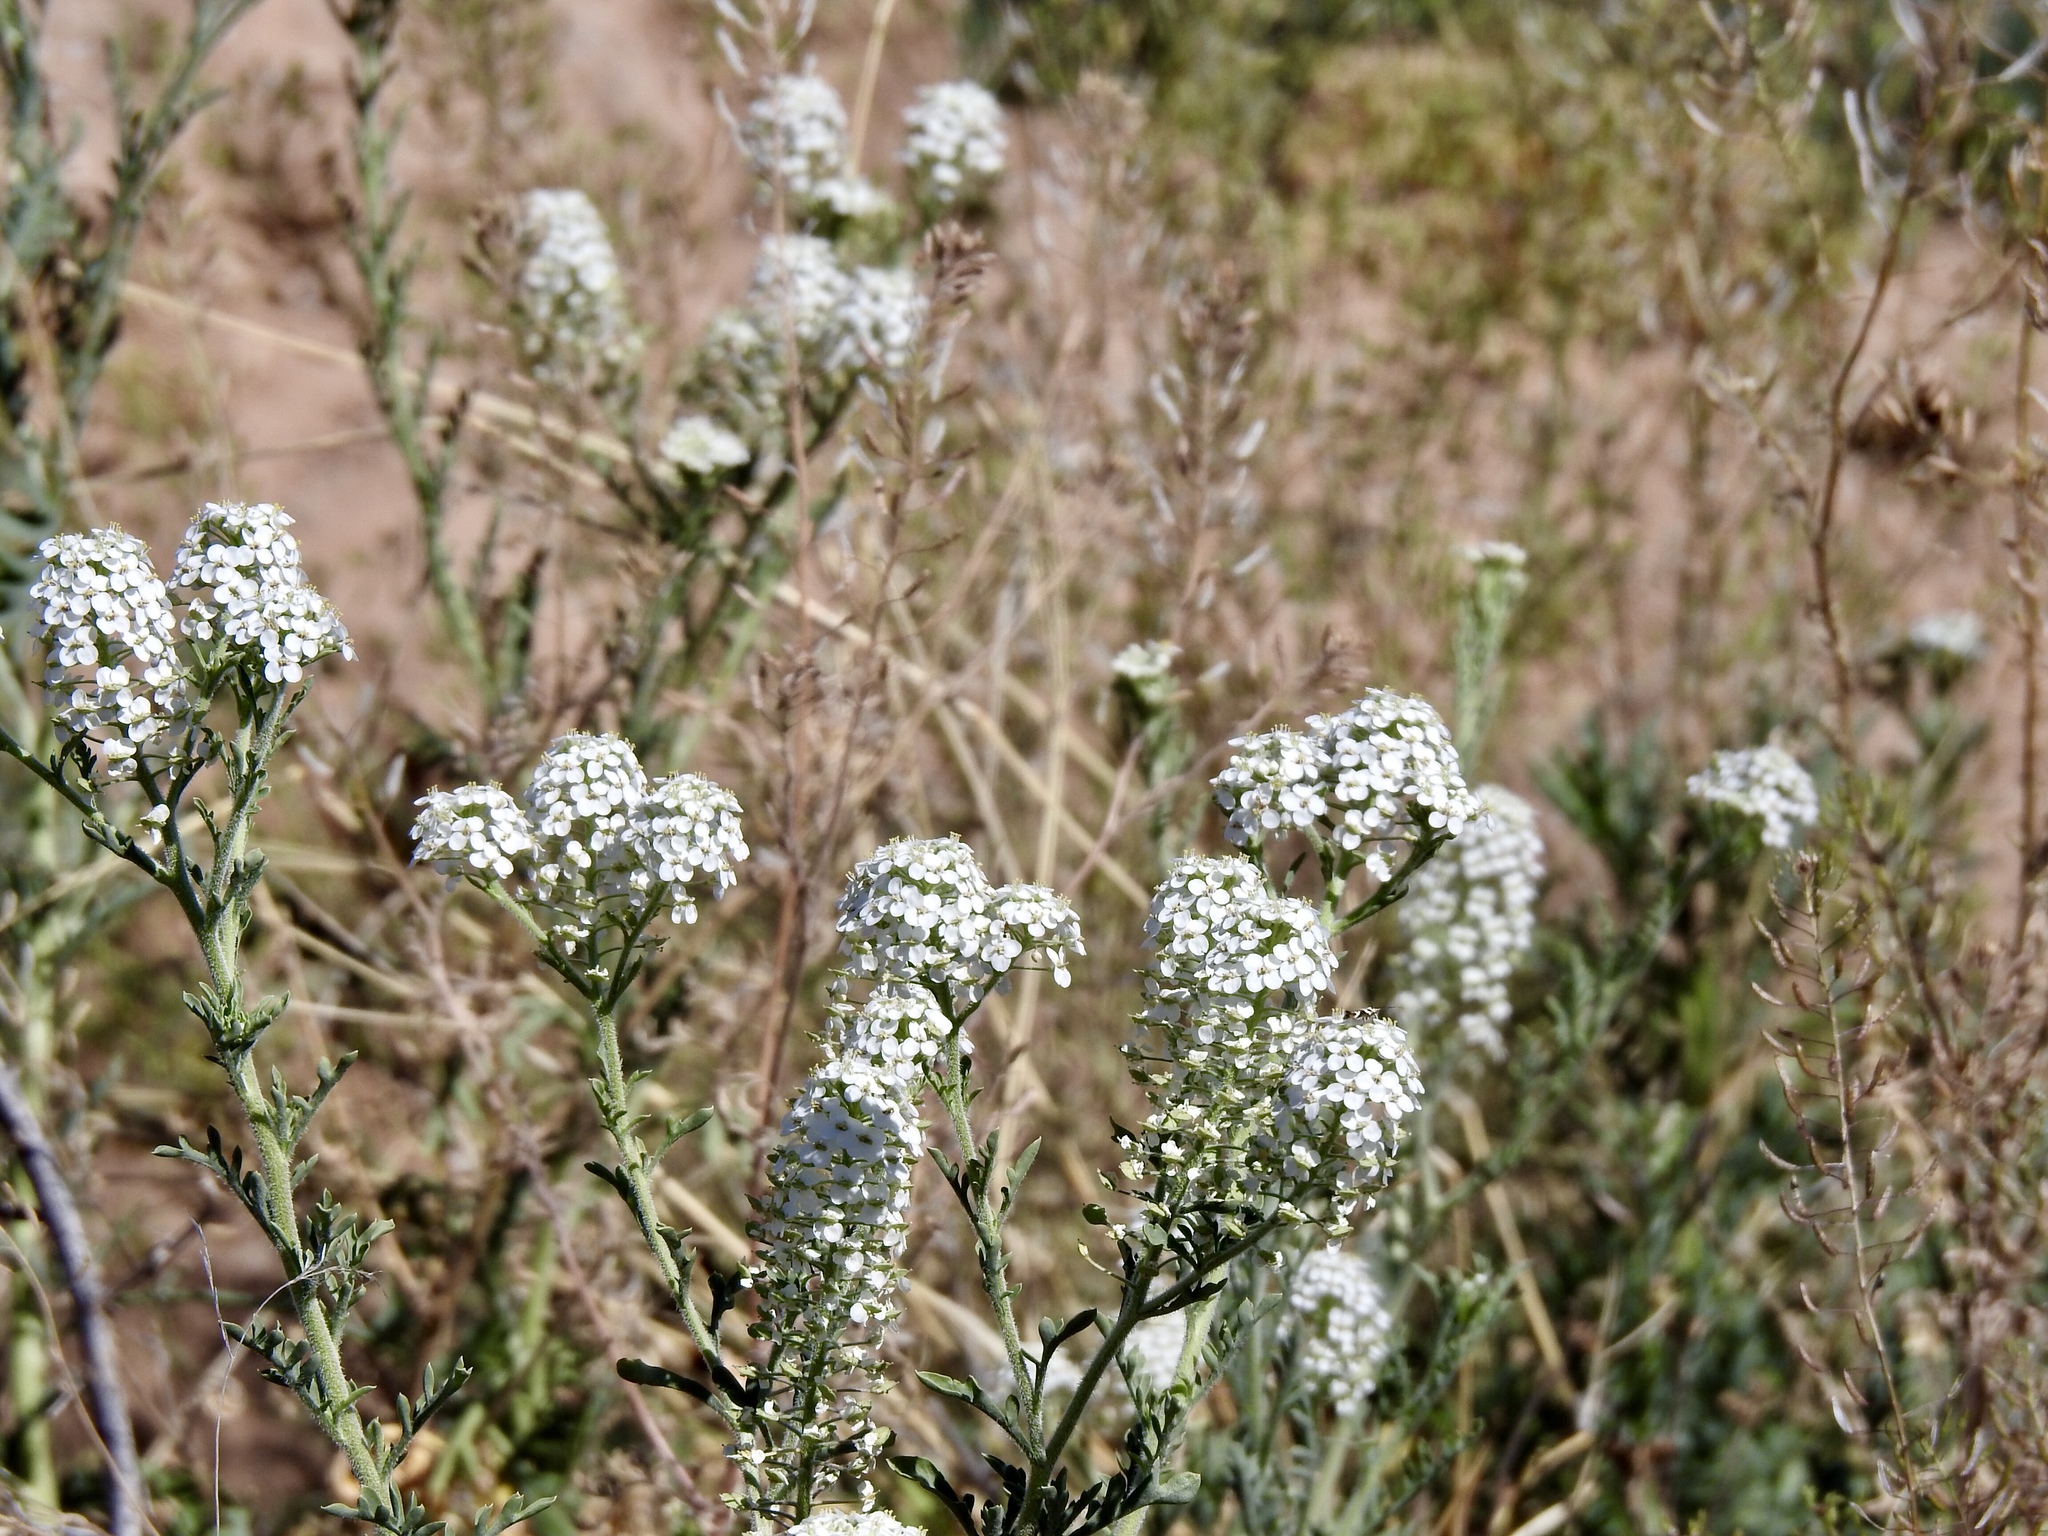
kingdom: Plantae
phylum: Tracheophyta
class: Magnoliopsida
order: Brassicales
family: Brassicaceae
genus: Lepidium
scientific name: Lepidium thurberi
